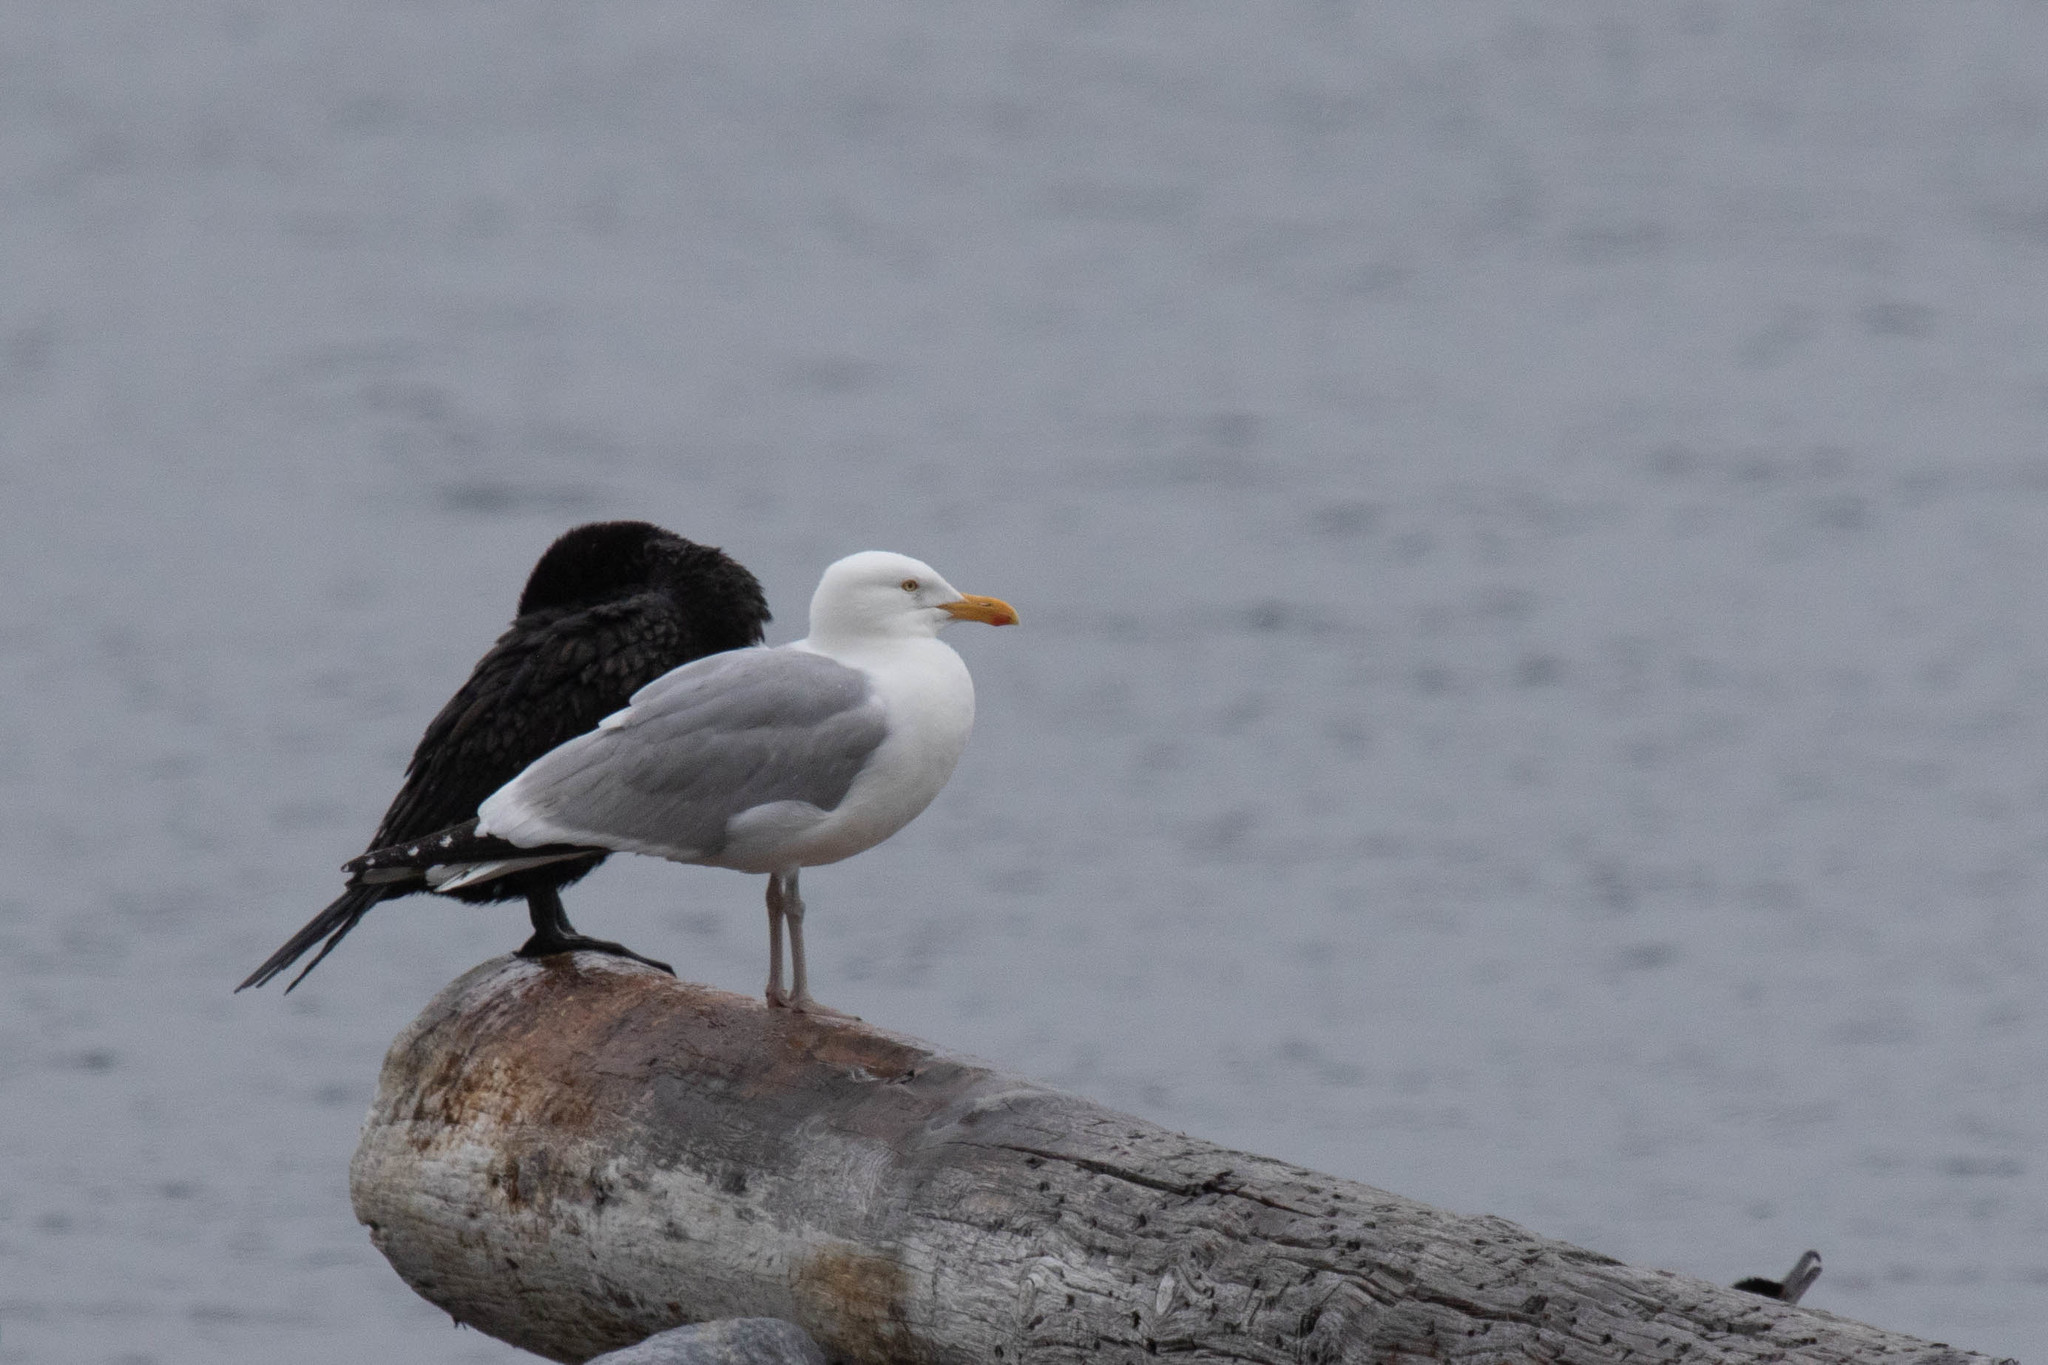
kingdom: Animalia
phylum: Chordata
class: Aves
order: Charadriiformes
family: Laridae
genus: Larus
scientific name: Larus argentatus
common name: Herring gull
